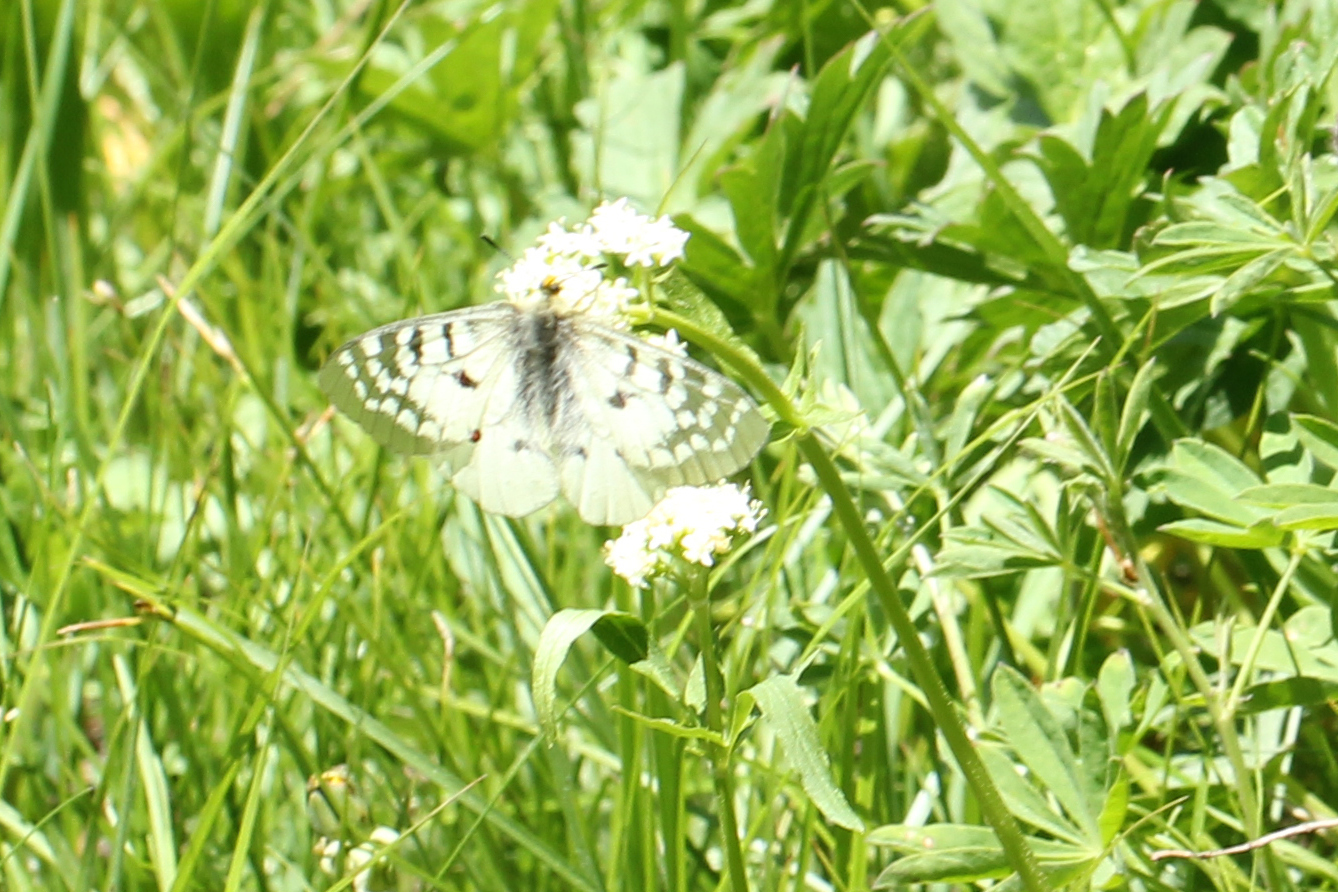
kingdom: Animalia
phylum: Arthropoda
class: Insecta
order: Lepidoptera
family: Papilionidae
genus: Parnassius
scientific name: Parnassius smintheus
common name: Mountain parnassian
